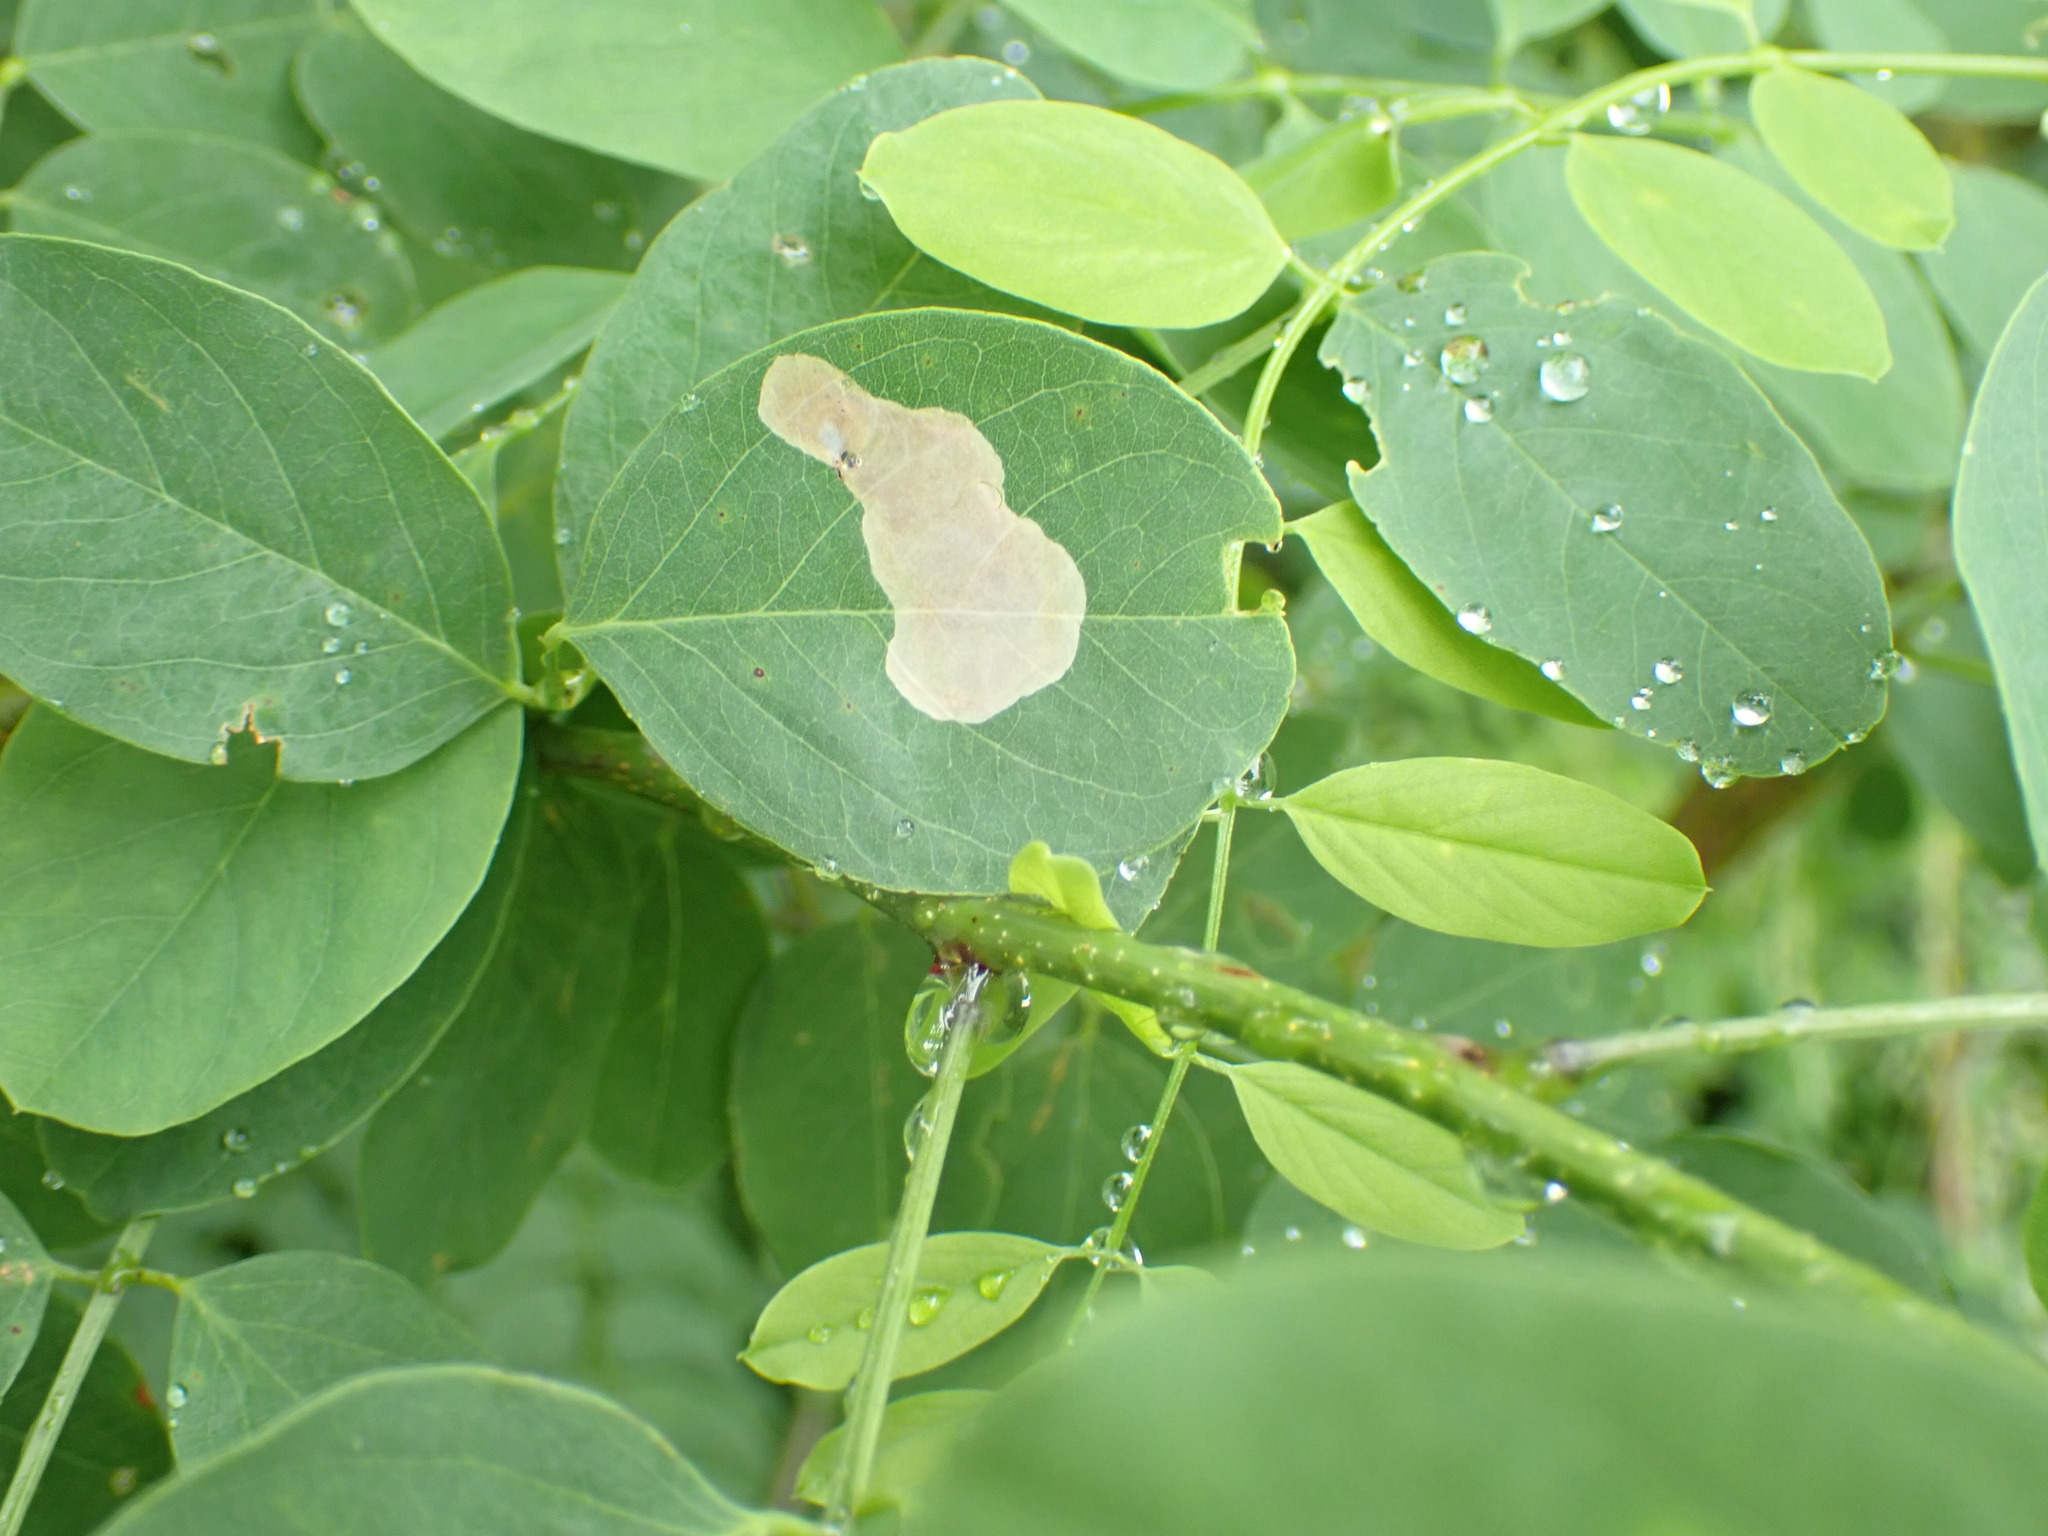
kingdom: Animalia
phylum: Arthropoda
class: Insecta
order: Lepidoptera
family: Gracillariidae
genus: Chrysaster
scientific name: Chrysaster ostensackenella
